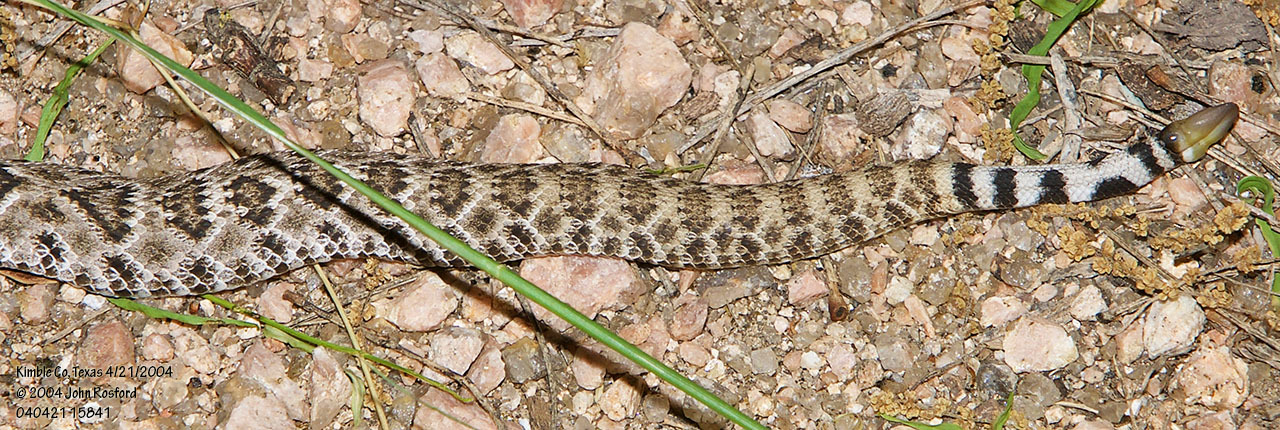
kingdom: Animalia
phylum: Chordata
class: Squamata
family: Viperidae
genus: Crotalus
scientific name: Crotalus atrox
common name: Western diamond-backed rattlesnake
